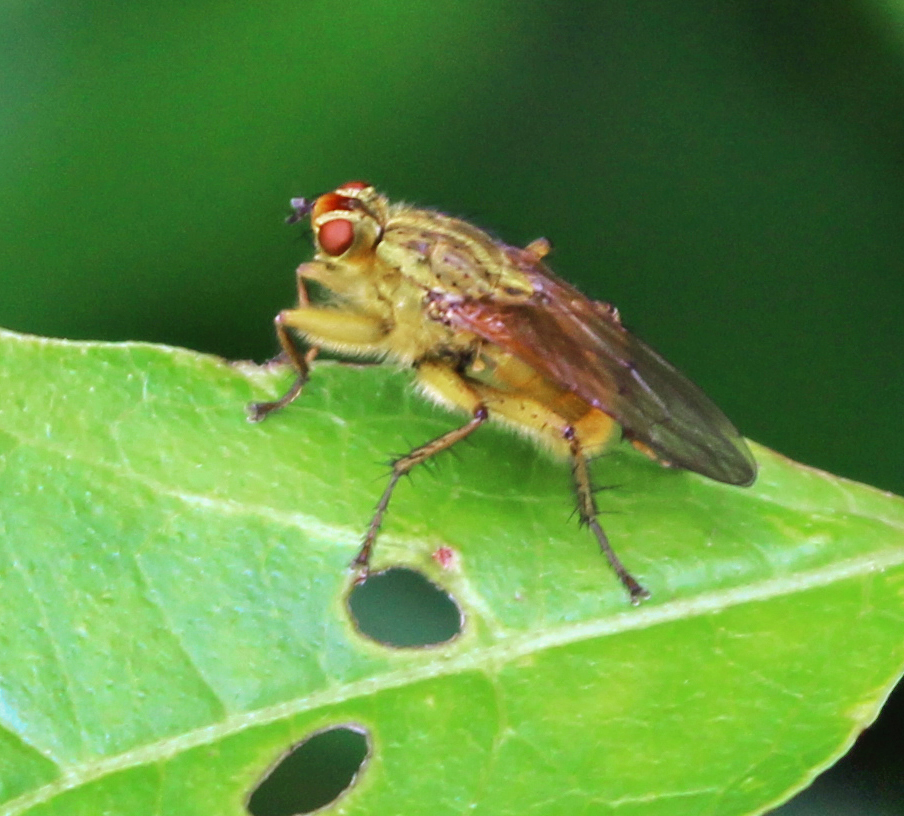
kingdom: Animalia
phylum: Arthropoda
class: Insecta
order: Diptera
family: Scathophagidae
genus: Scathophaga
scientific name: Scathophaga stercoraria
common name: Yellow dung fly
